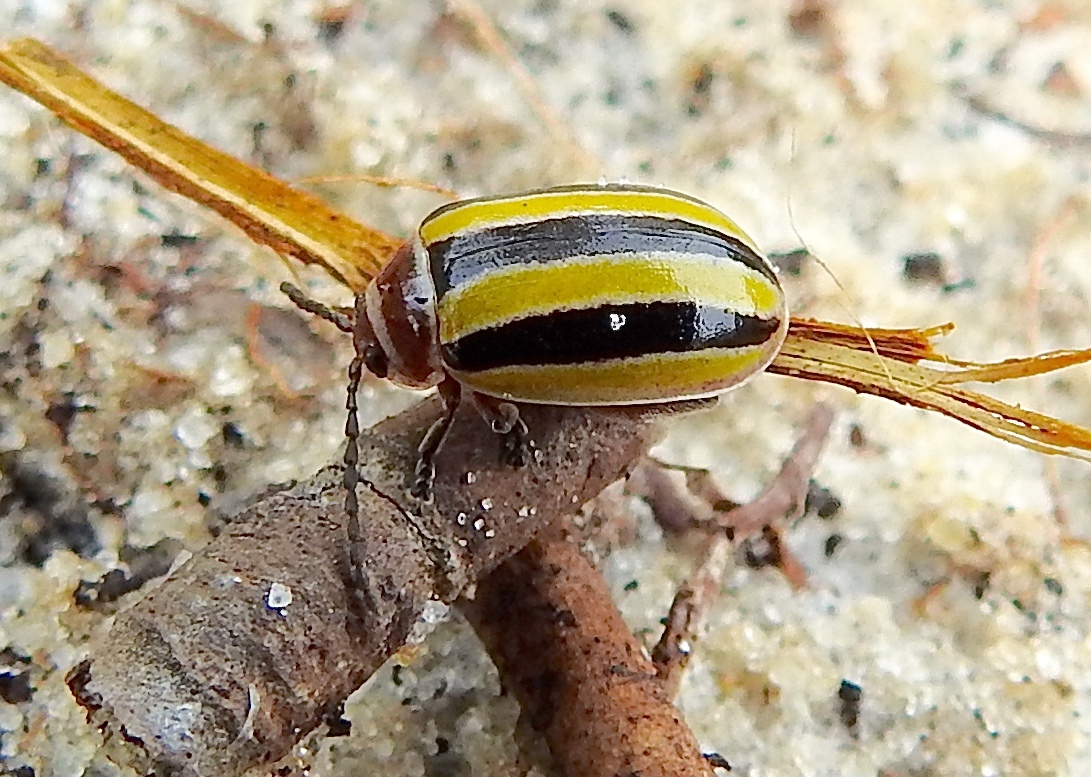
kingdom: Animalia
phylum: Arthropoda
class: Insecta
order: Coleoptera
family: Chrysomelidae
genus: Kuschelina
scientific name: Kuschelina floridana
